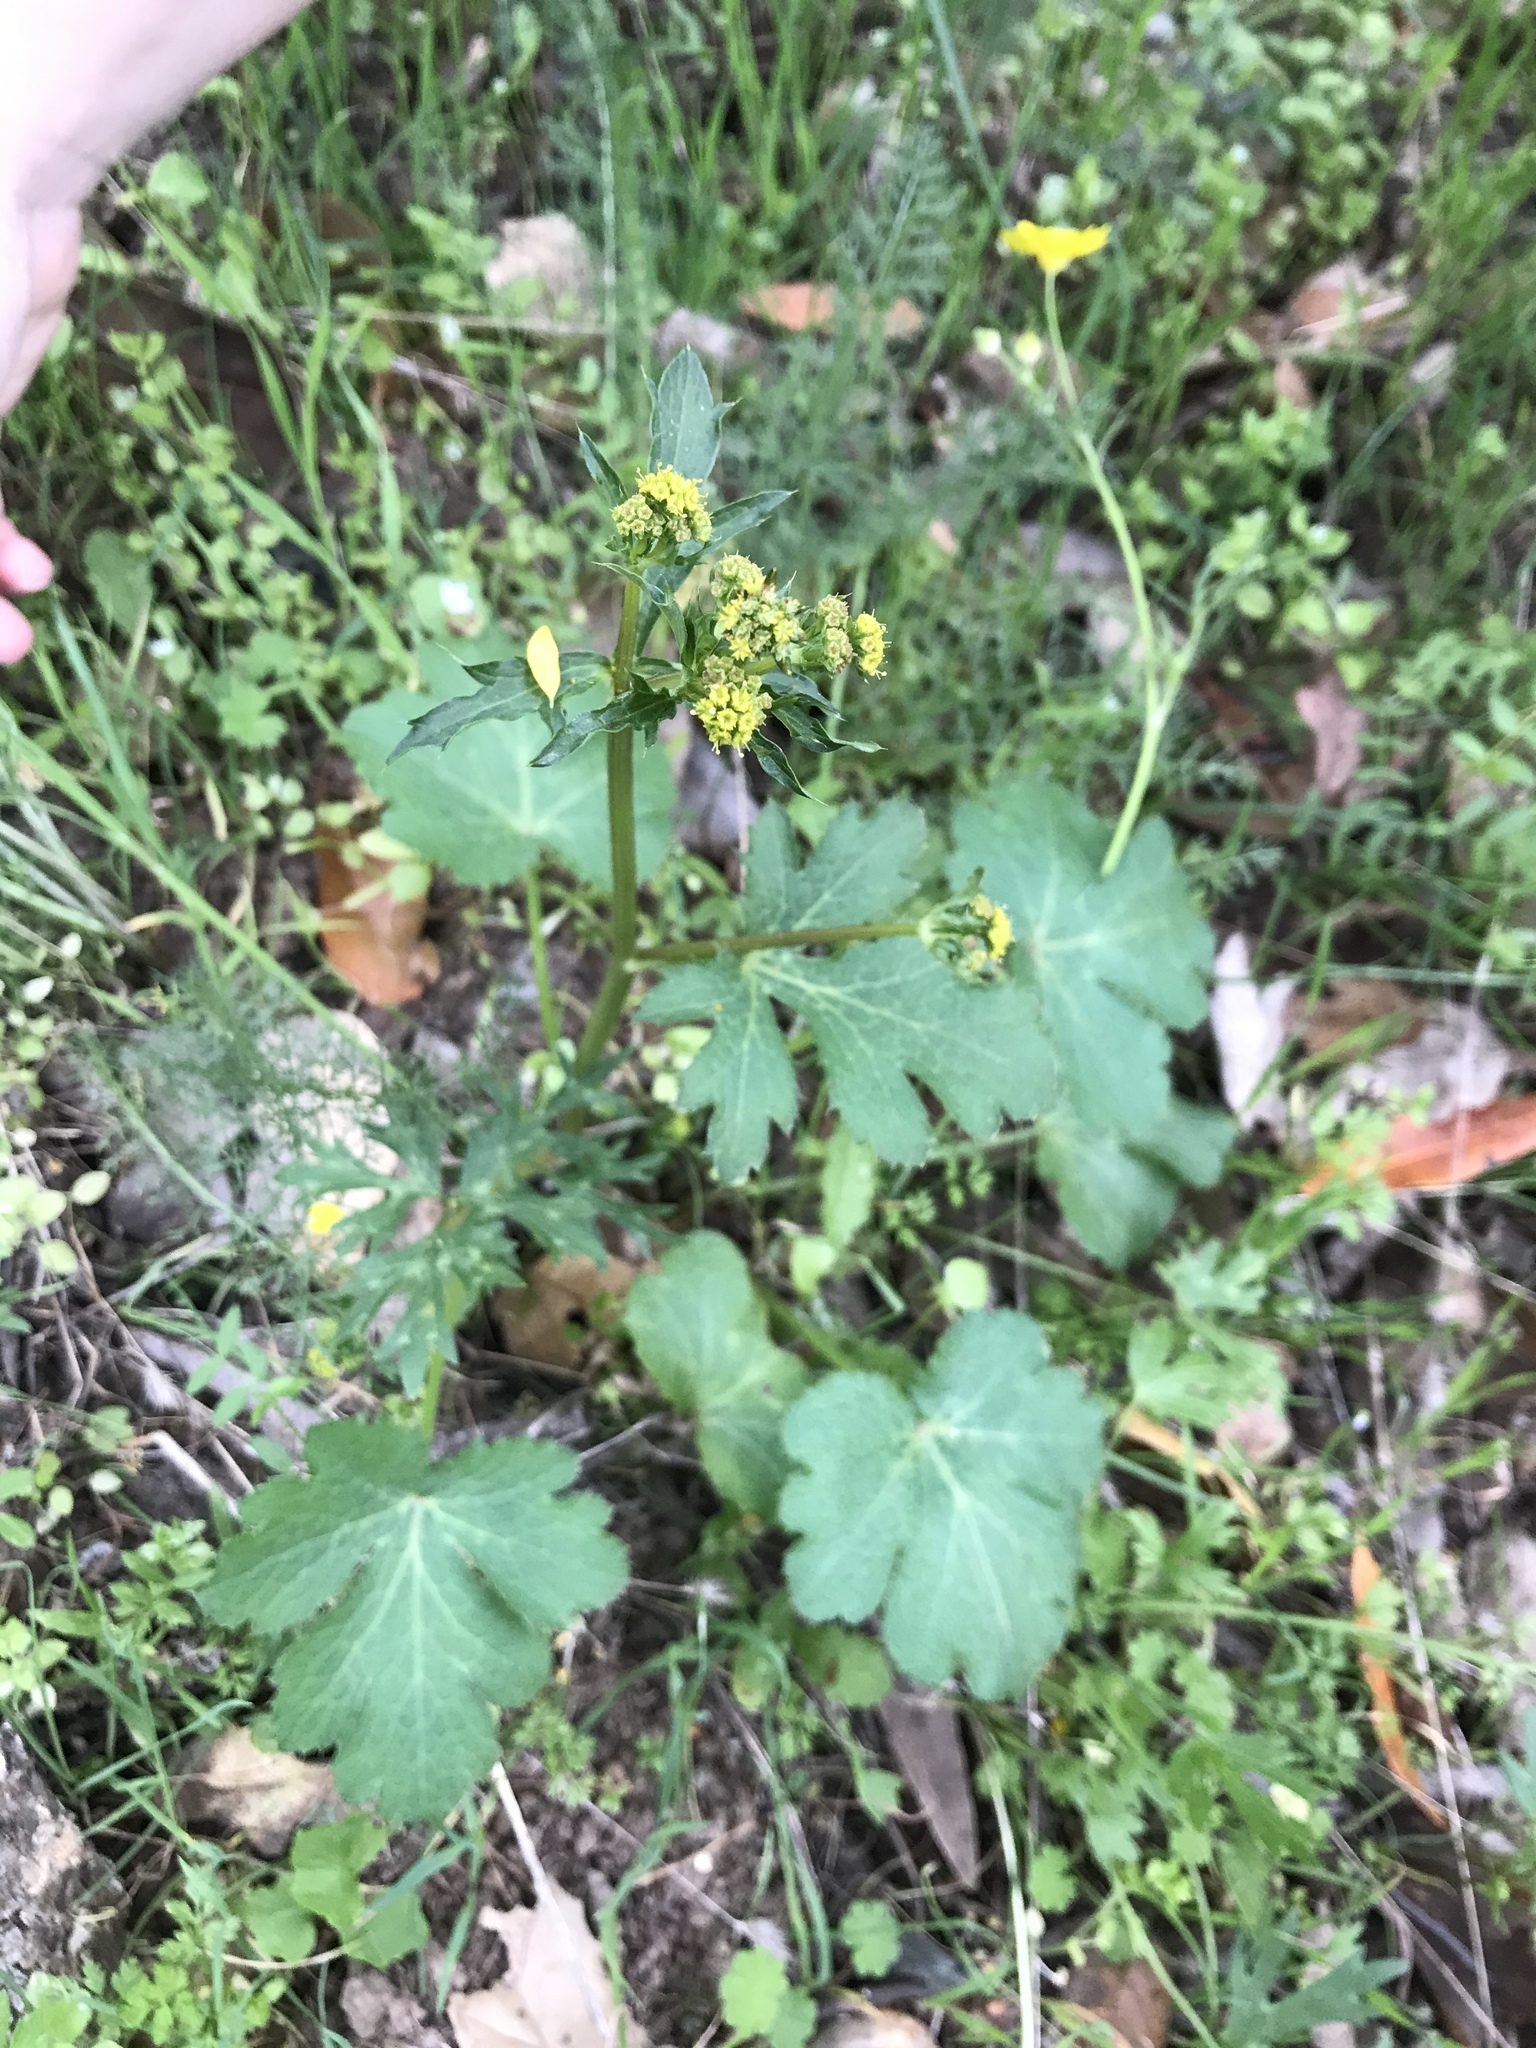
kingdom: Plantae
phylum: Tracheophyta
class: Magnoliopsida
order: Apiales
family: Apiaceae
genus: Sanicula
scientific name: Sanicula crassicaulis
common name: Western snakeroot
